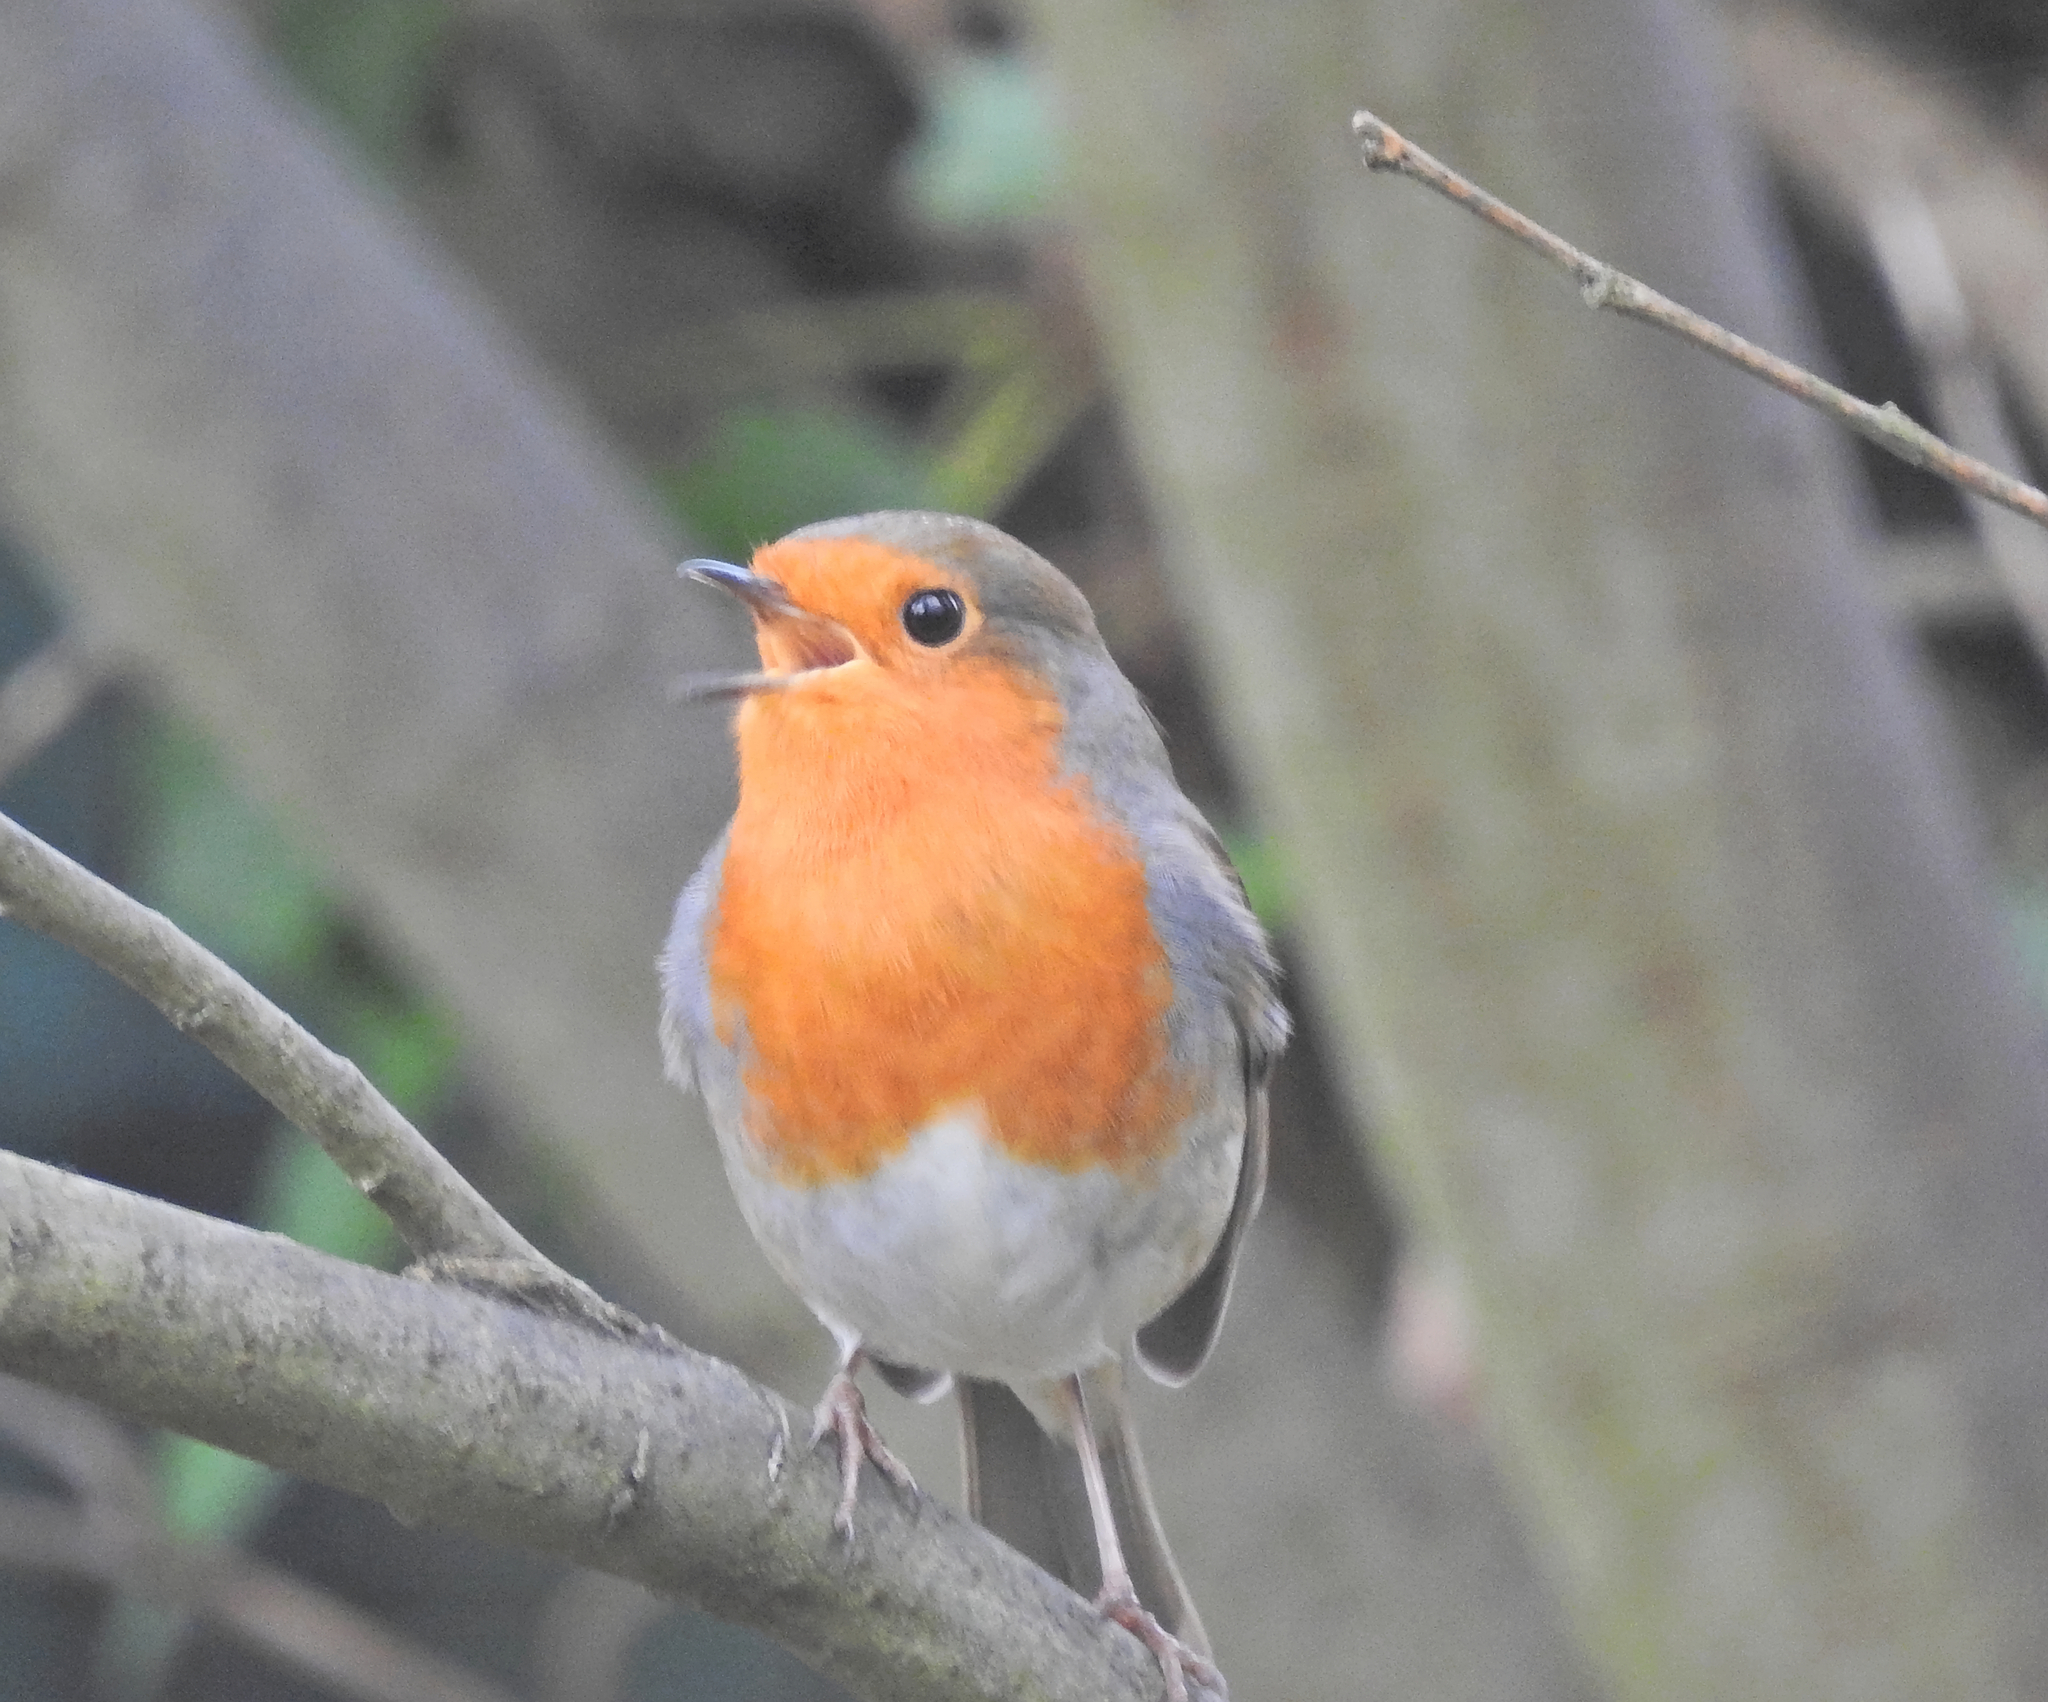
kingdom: Animalia
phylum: Chordata
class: Aves
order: Passeriformes
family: Muscicapidae
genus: Erithacus
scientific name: Erithacus rubecula
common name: European robin
